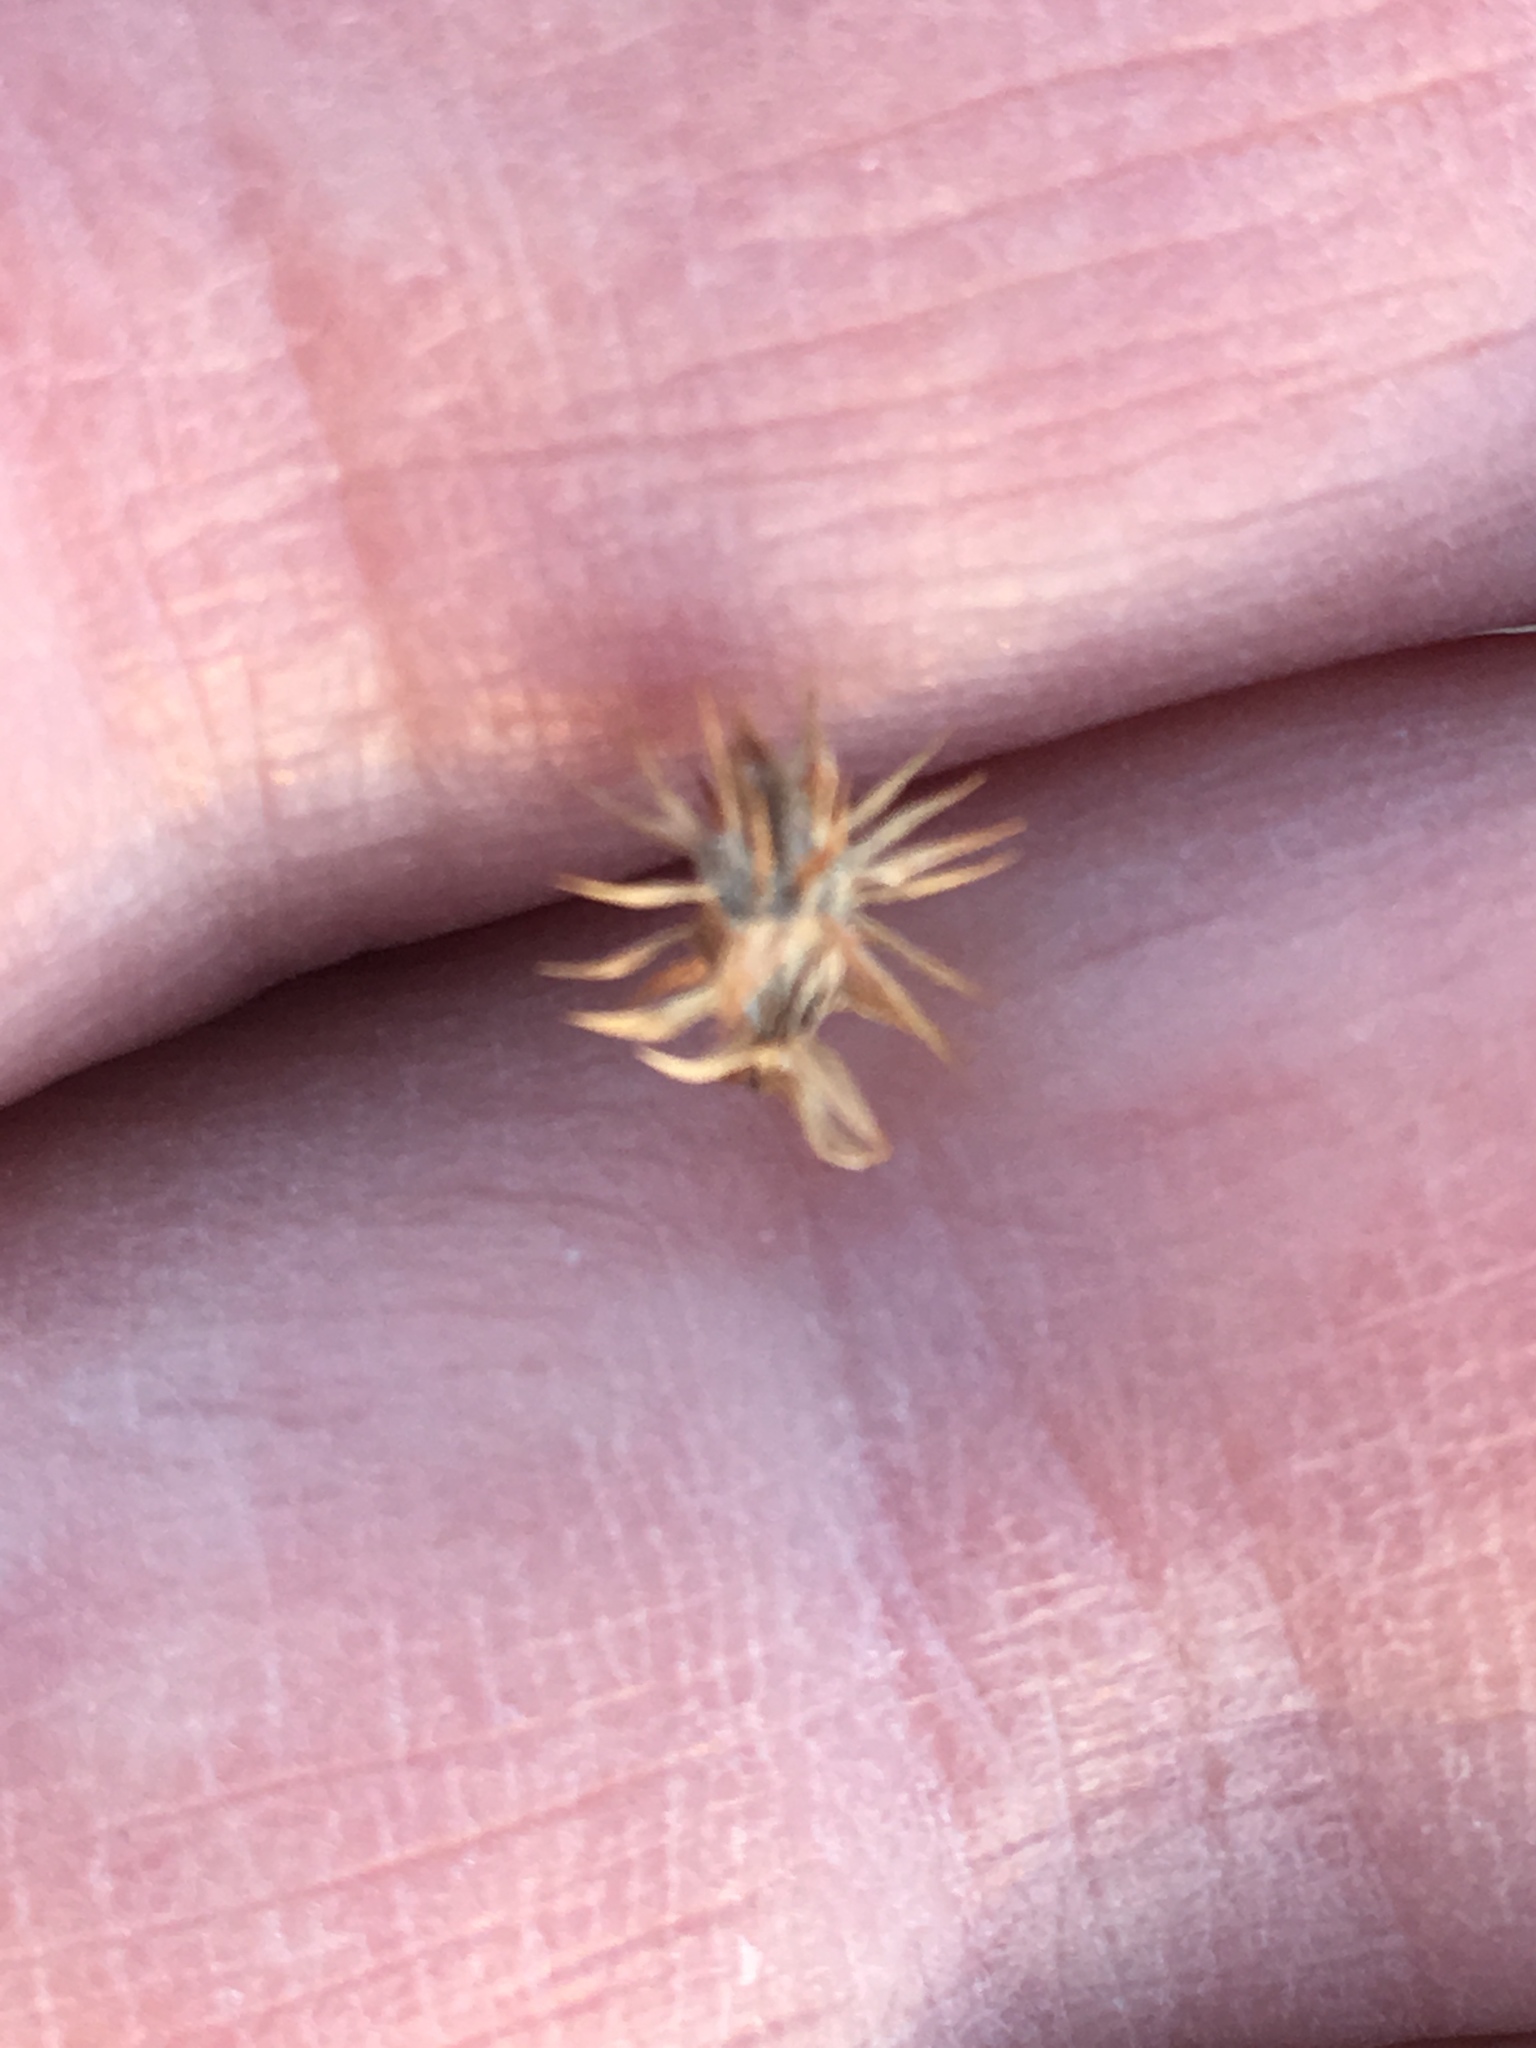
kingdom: Plantae
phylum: Tracheophyta
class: Magnoliopsida
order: Asterales
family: Asteraceae
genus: Ambrosia
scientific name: Ambrosia dumosa
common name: Bur-sage
